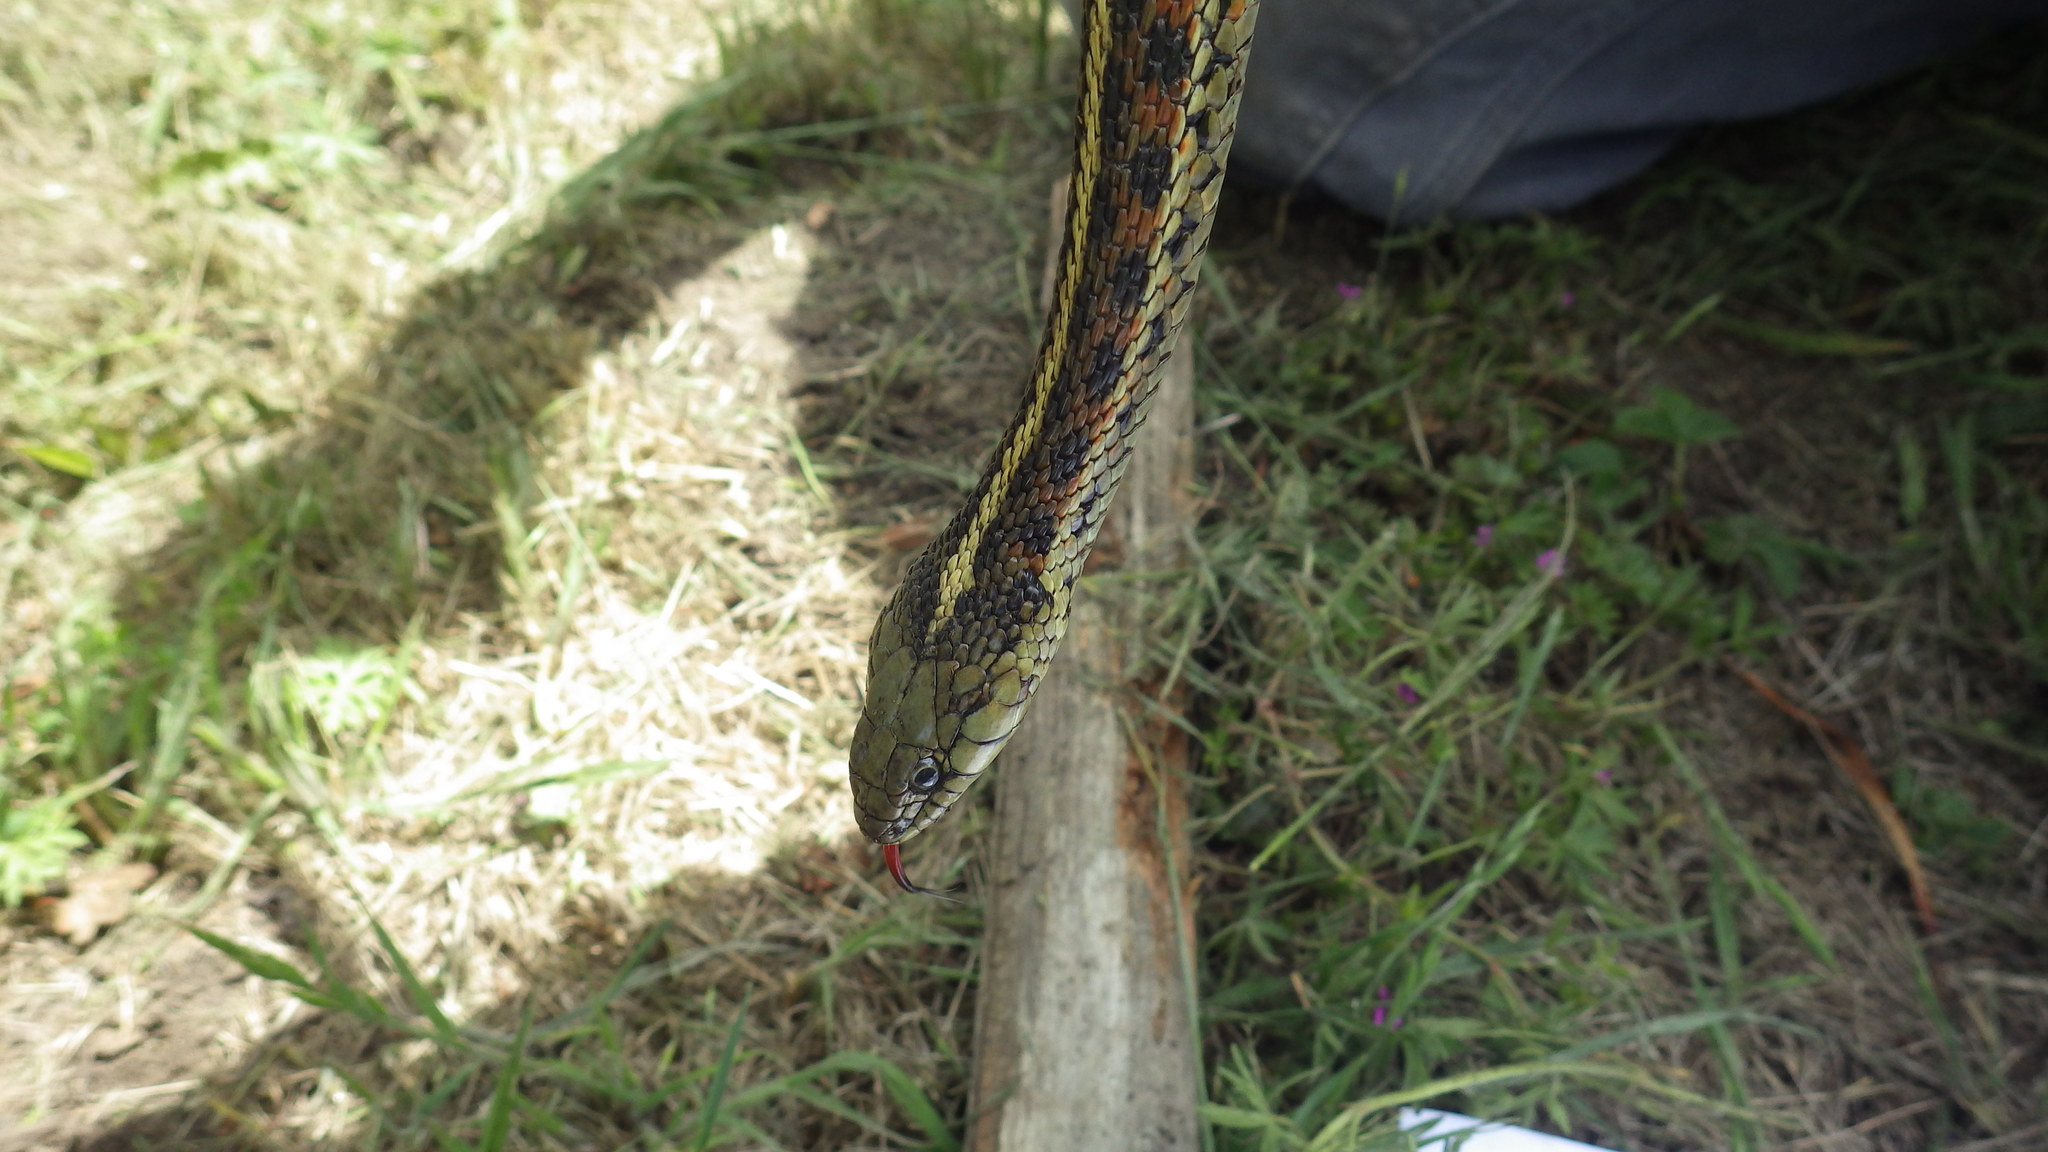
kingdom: Animalia
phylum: Chordata
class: Squamata
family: Colubridae
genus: Thamnophis
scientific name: Thamnophis elegans
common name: Western terrestrial garter snake
